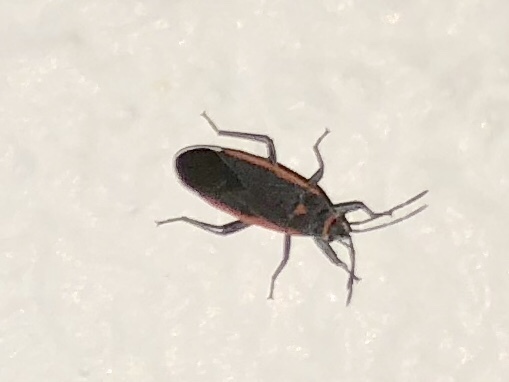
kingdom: Animalia
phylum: Arthropoda
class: Insecta
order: Hemiptera
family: Lygaeidae
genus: Melacoryphus
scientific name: Melacoryphus lateralis
